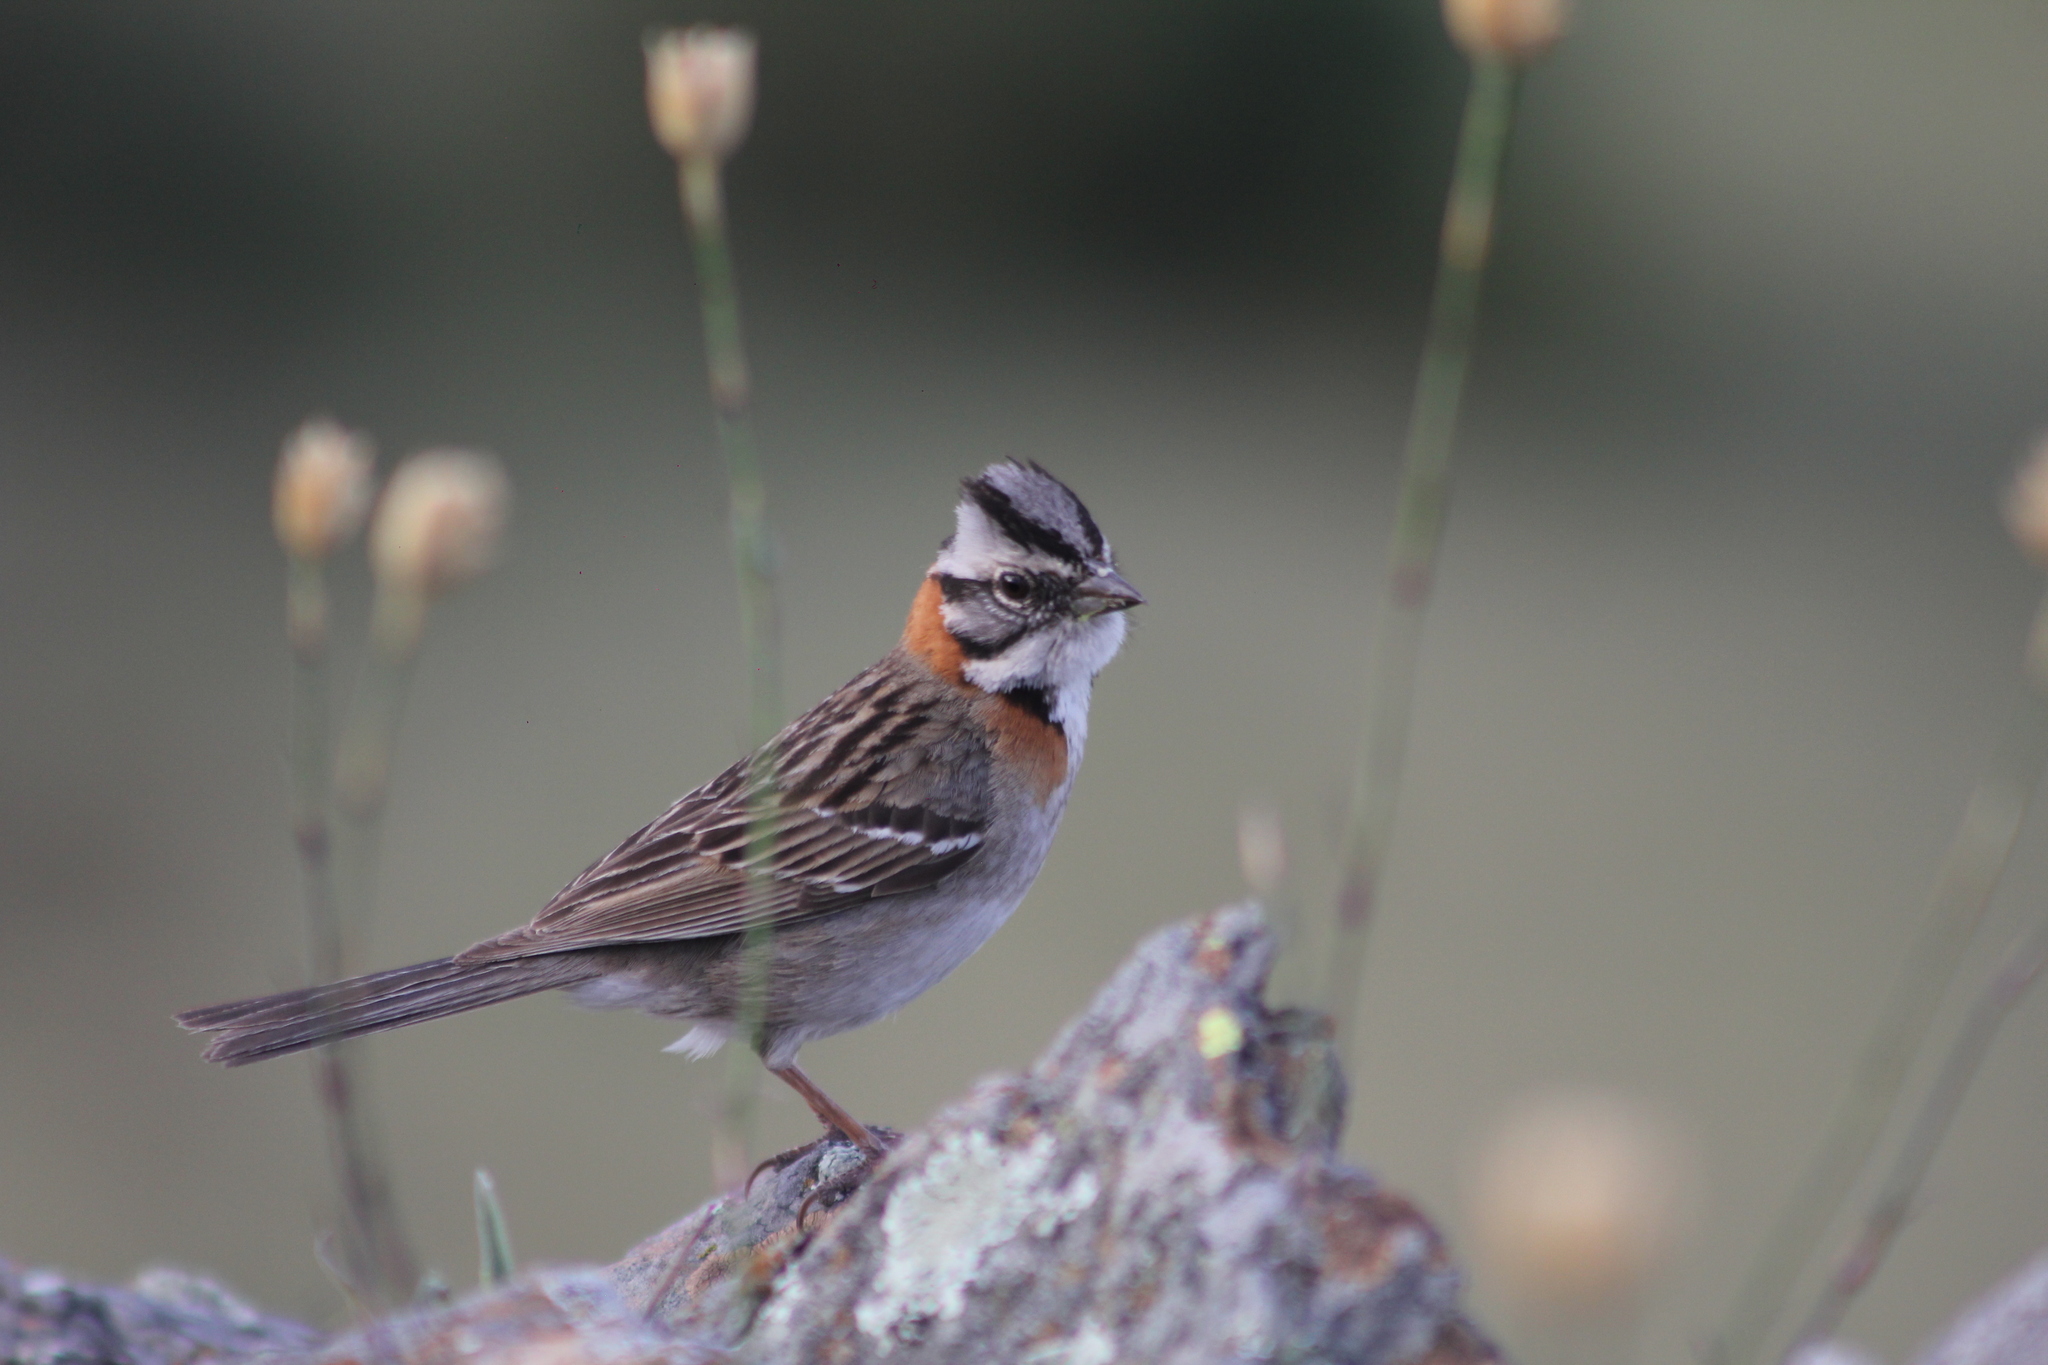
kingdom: Animalia
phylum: Chordata
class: Aves
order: Passeriformes
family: Passerellidae
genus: Zonotrichia
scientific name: Zonotrichia capensis
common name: Rufous-collared sparrow
